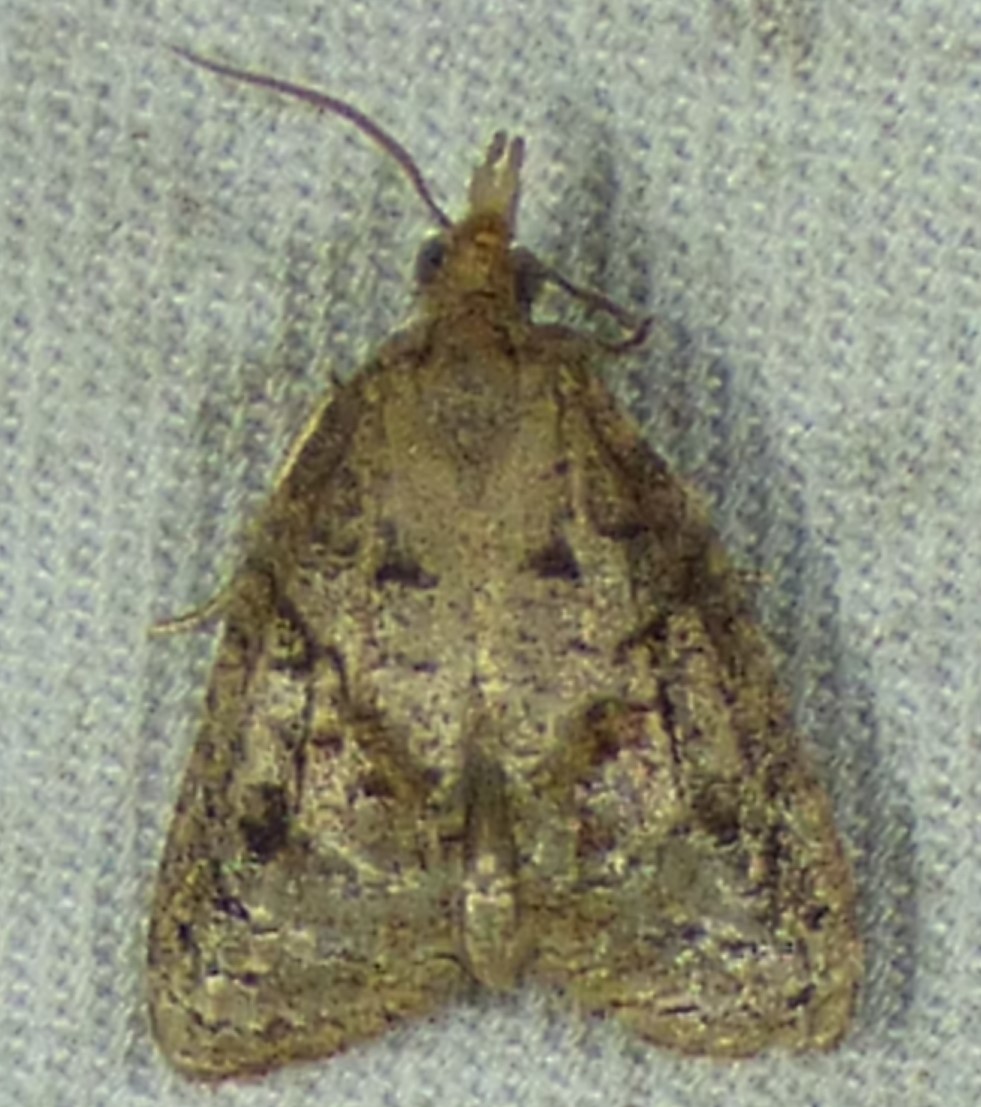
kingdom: Animalia
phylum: Arthropoda
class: Insecta
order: Lepidoptera
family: Tortricidae
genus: Platynota
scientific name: Platynota idaeusalis
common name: Tufted apple bud moth
